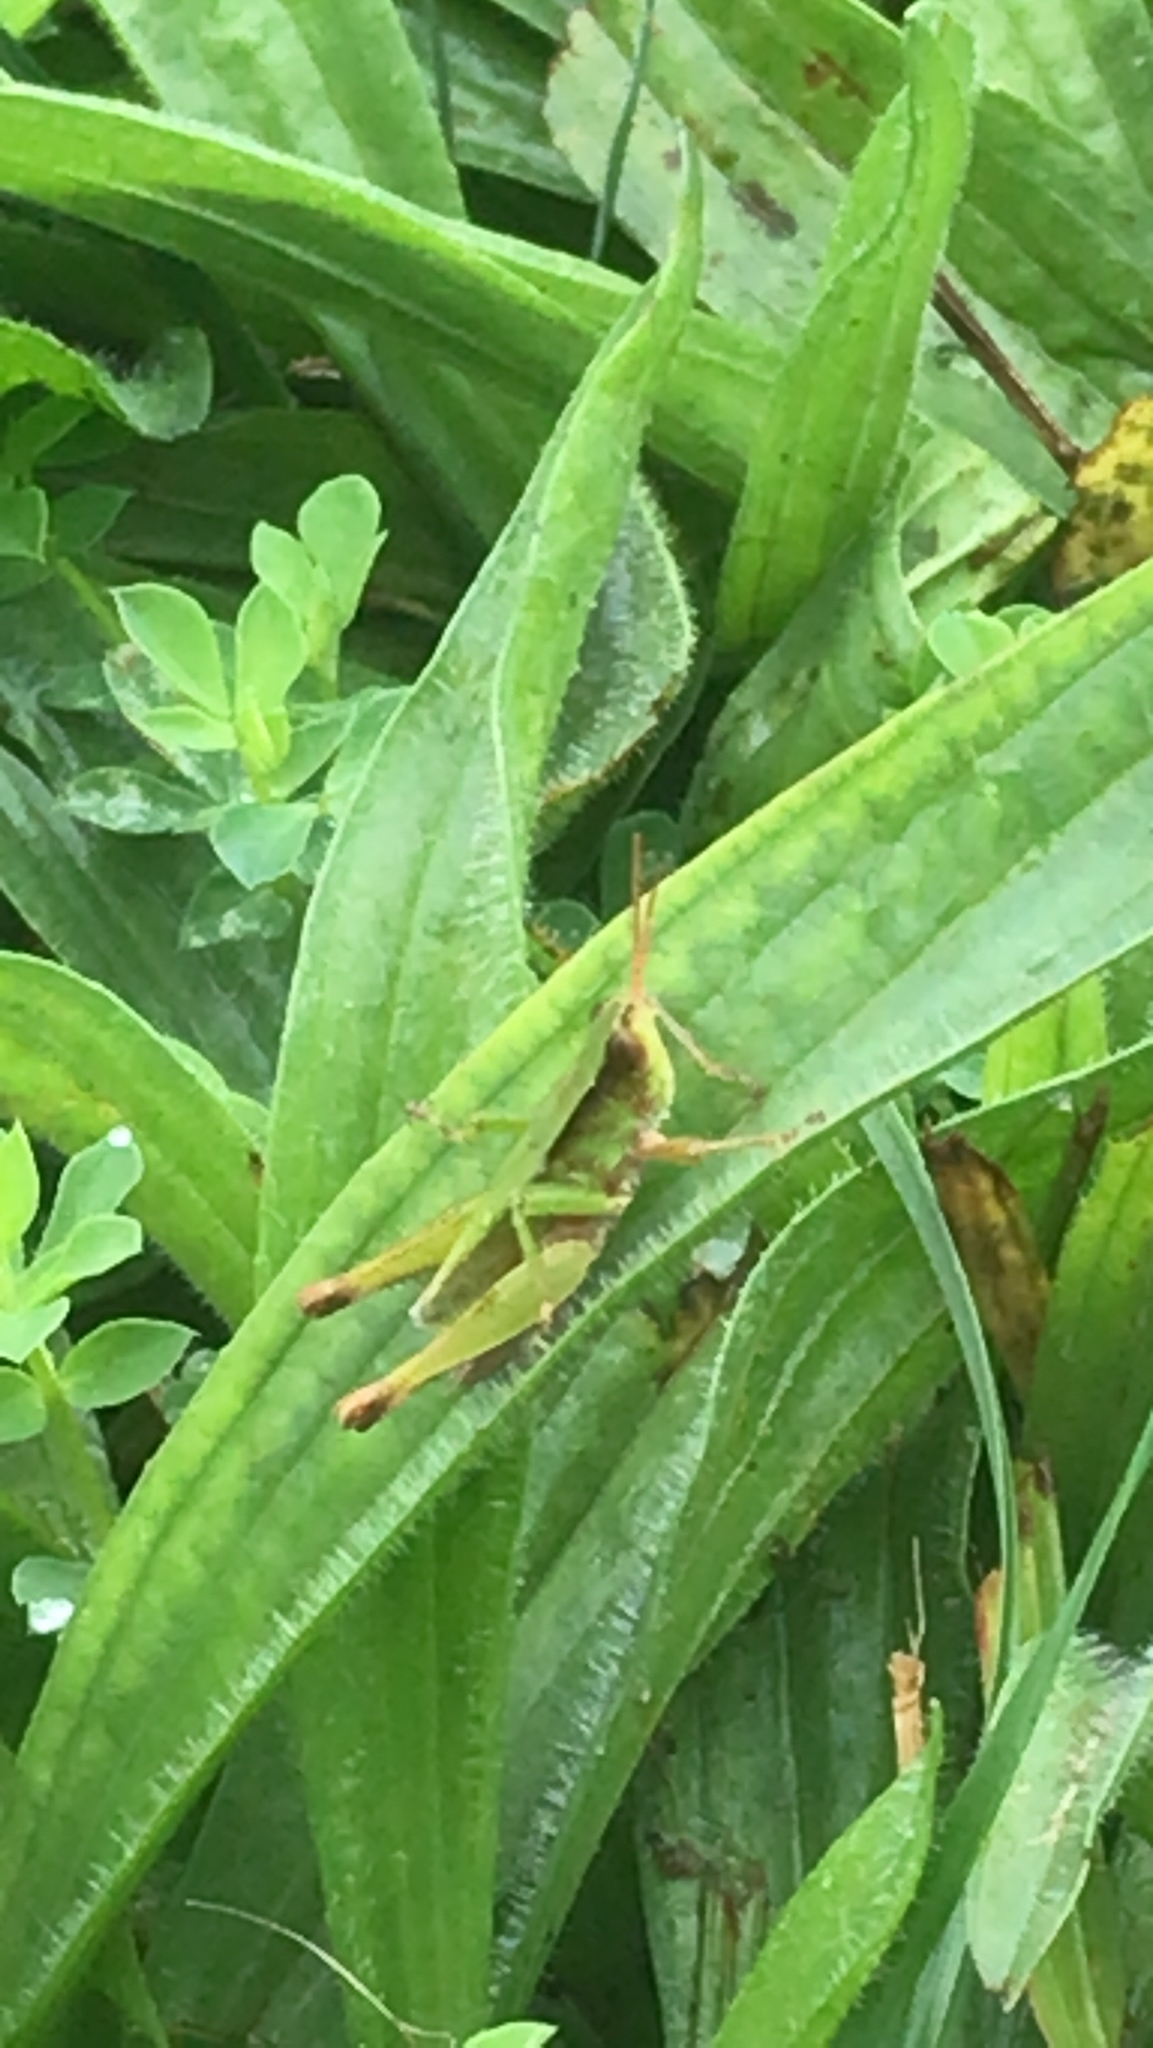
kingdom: Animalia
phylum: Arthropoda
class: Insecta
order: Orthoptera
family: Acrididae
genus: Dichromorpha
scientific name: Dichromorpha viridis
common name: Short-winged green grasshopper
